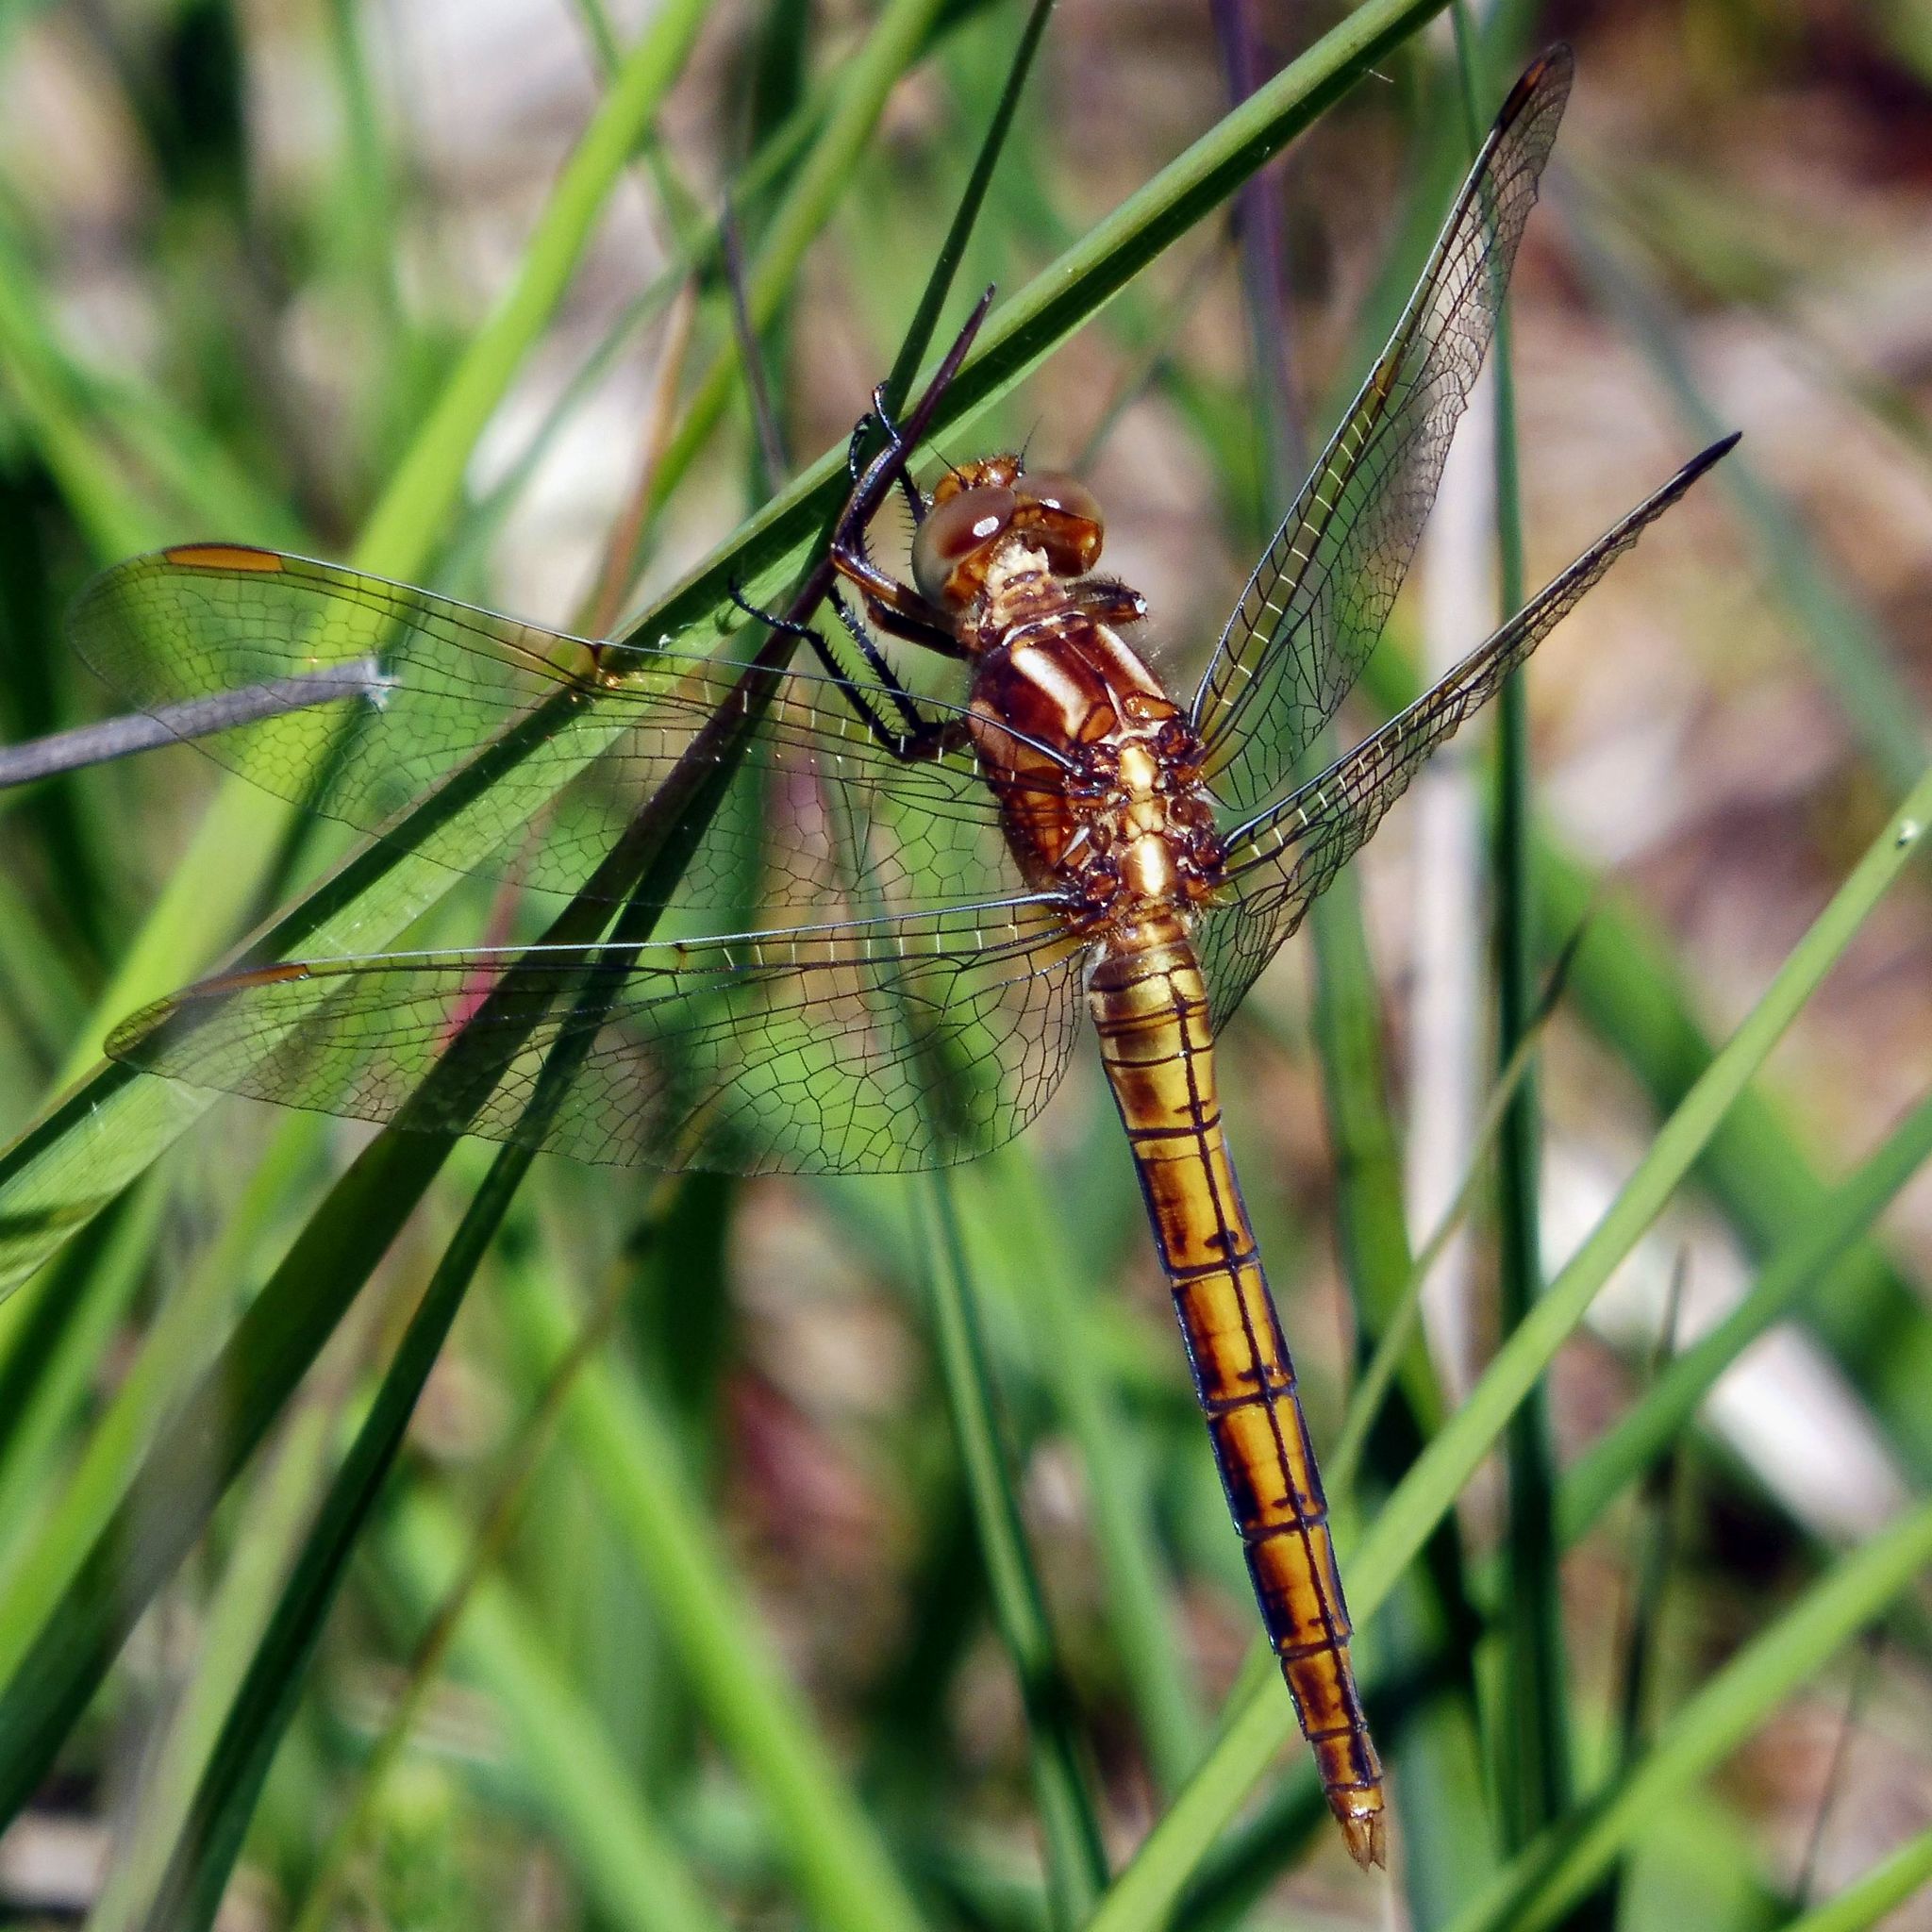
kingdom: Animalia
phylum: Arthropoda
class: Insecta
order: Odonata
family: Libellulidae
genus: Orthetrum
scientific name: Orthetrum coerulescens
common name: Keeled skimmer
